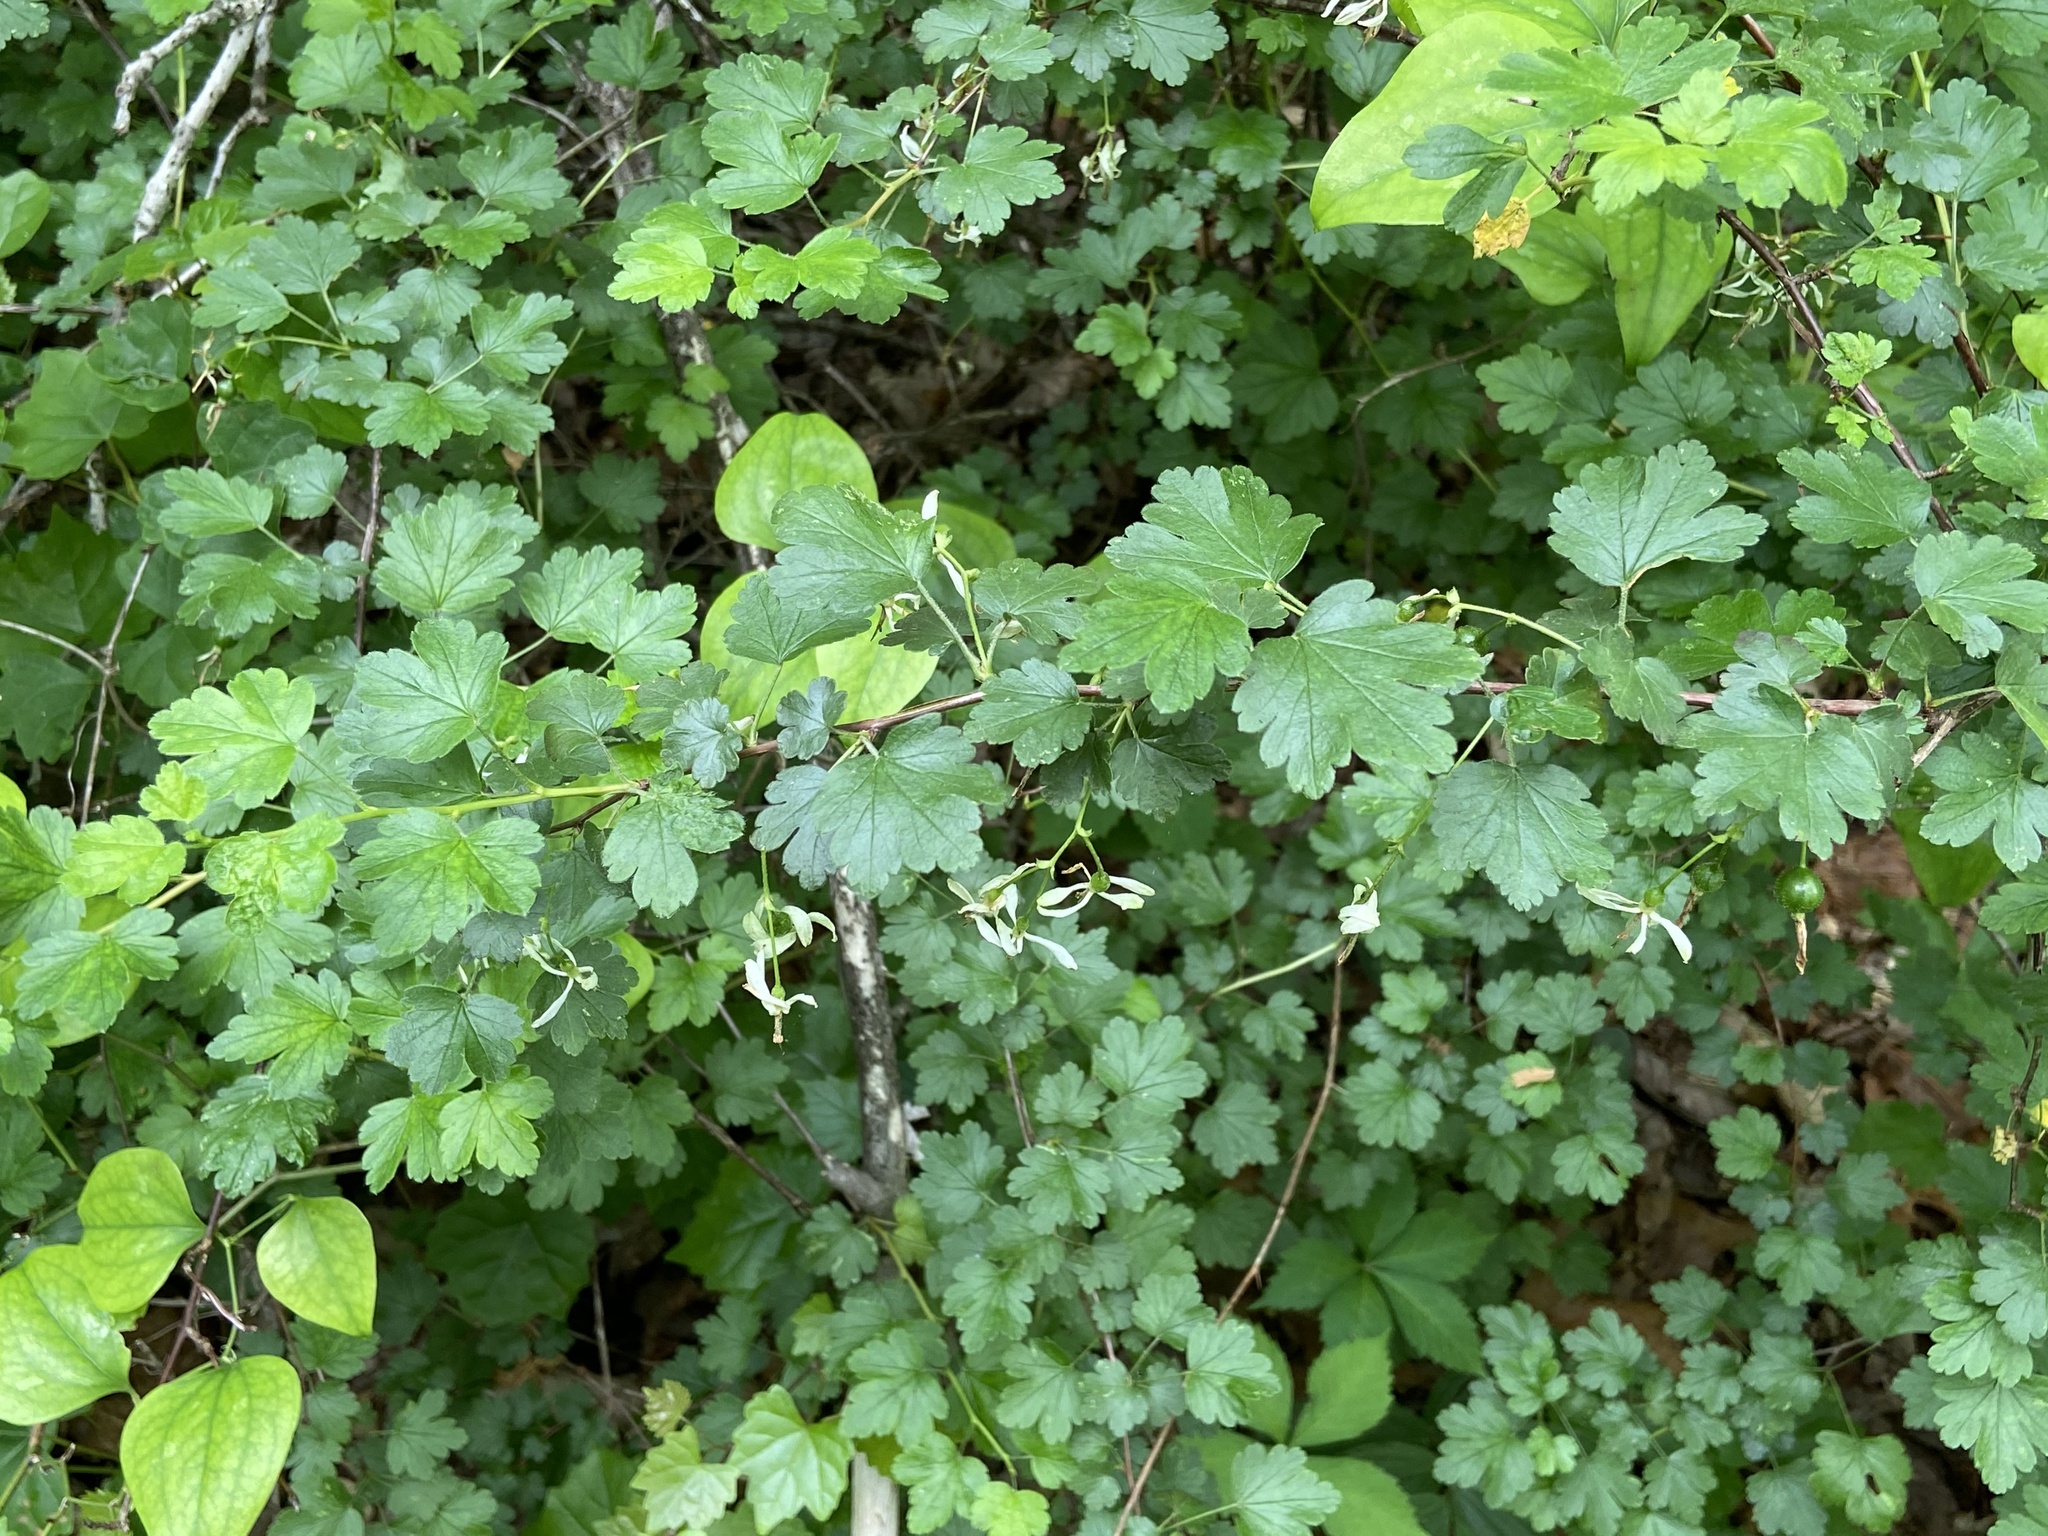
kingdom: Plantae
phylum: Tracheophyta
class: Magnoliopsida
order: Saxifragales
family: Grossulariaceae
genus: Ribes
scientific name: Ribes curvatum
